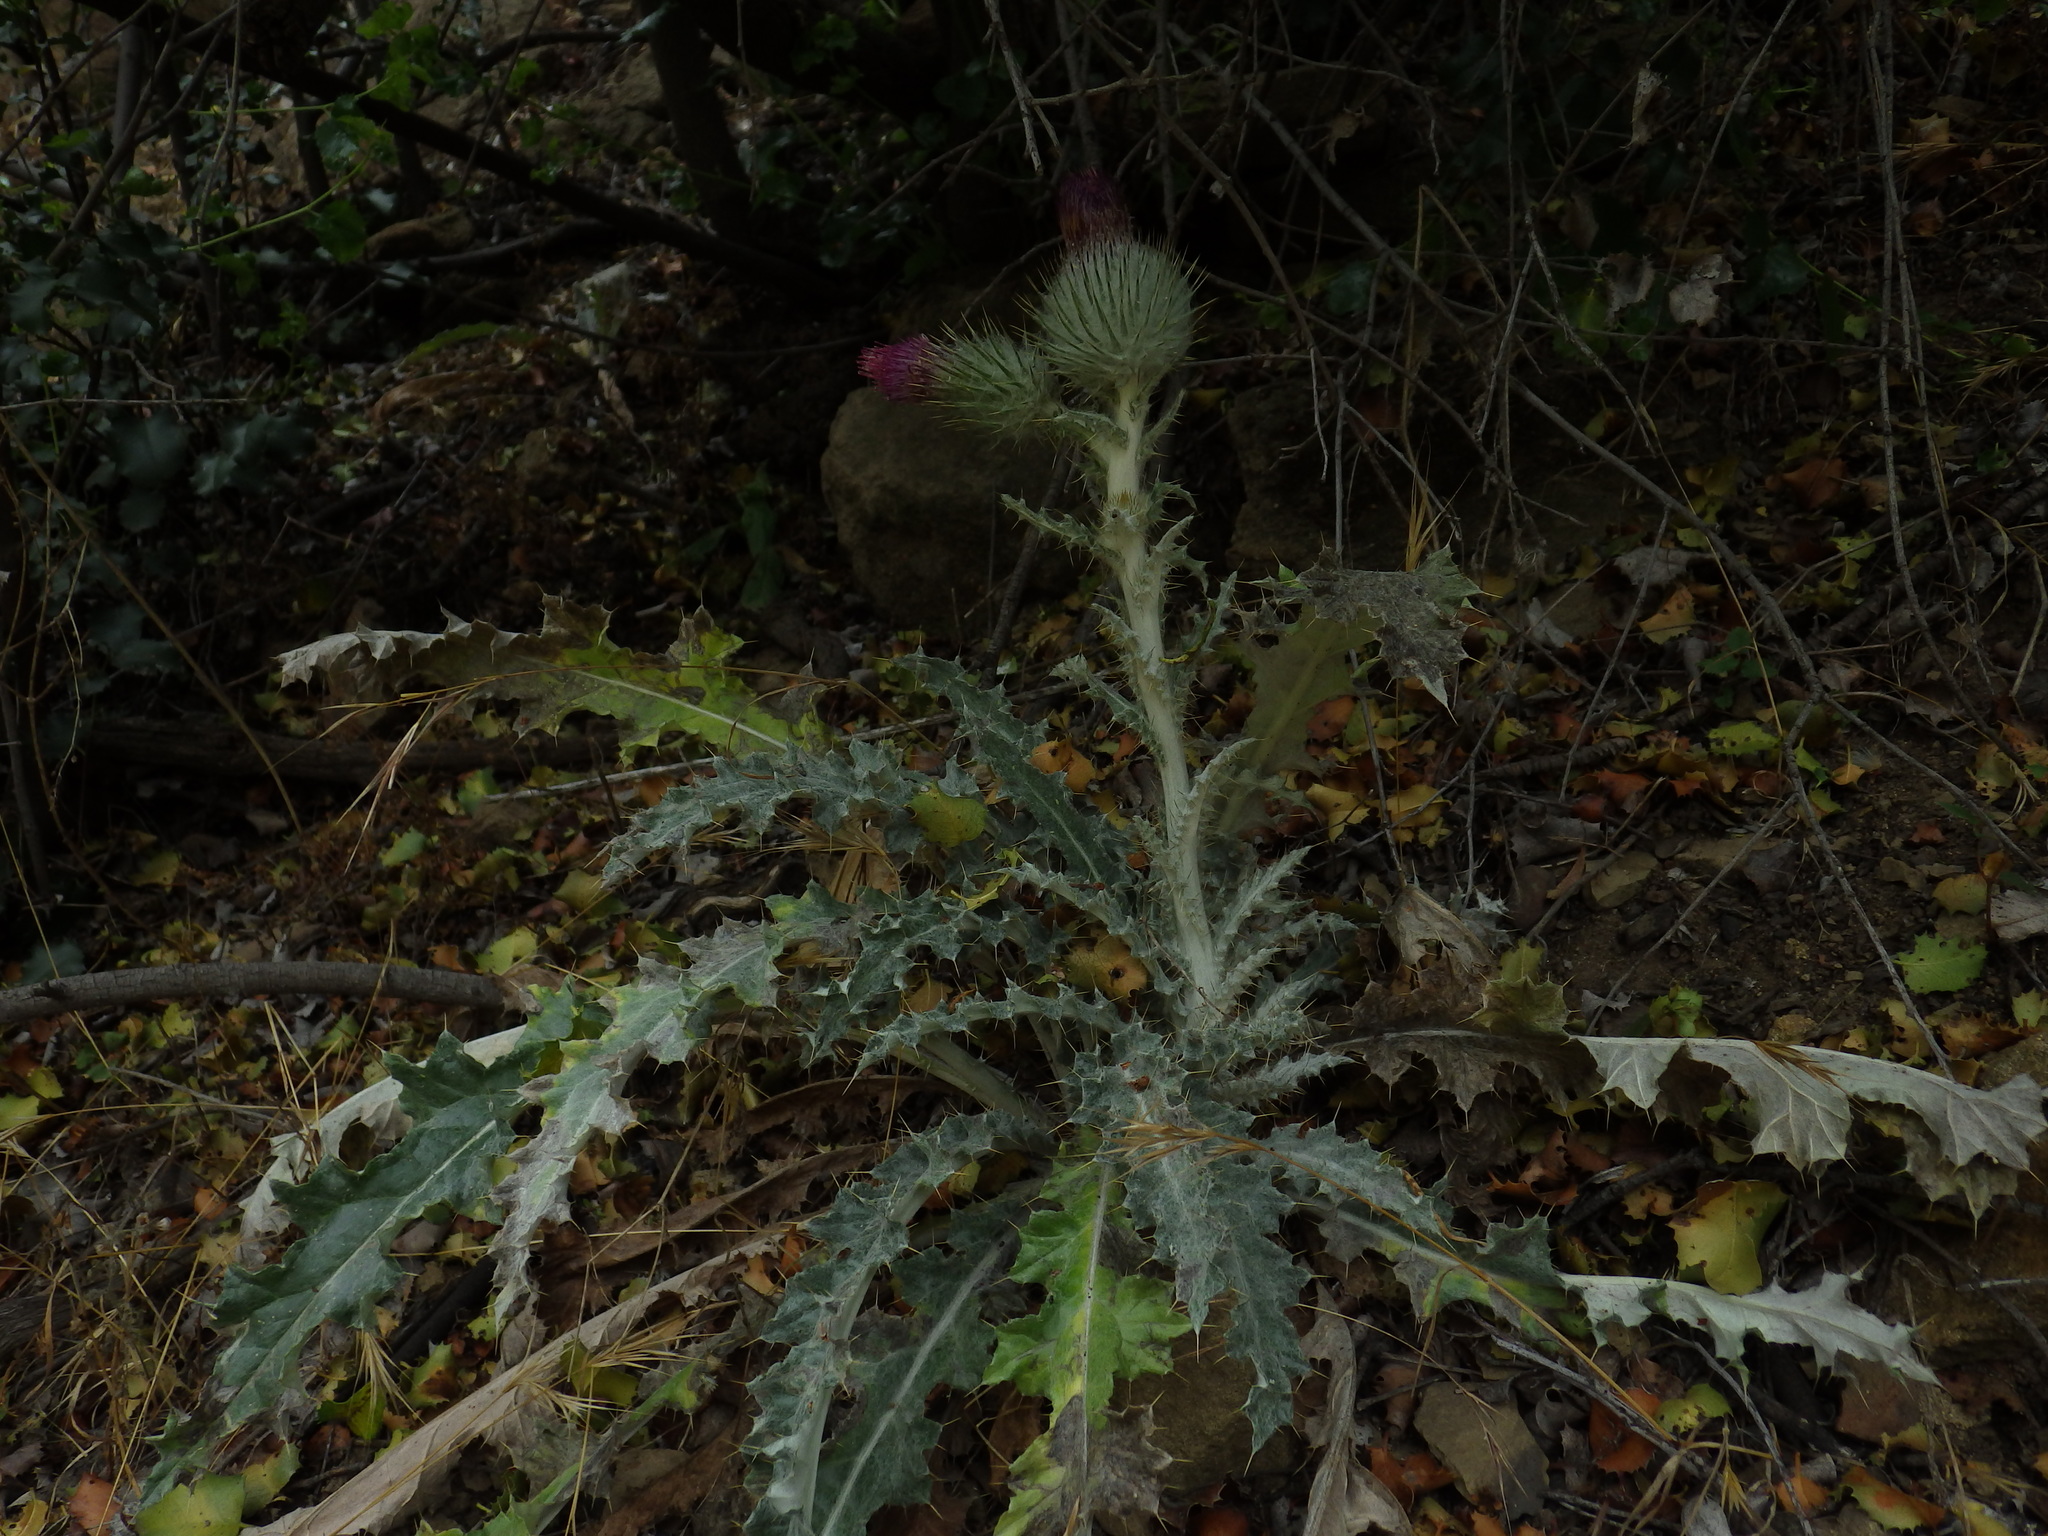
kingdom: Plantae
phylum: Tracheophyta
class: Magnoliopsida
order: Asterales
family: Asteraceae
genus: Cirsium
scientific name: Cirsium occidentale
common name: Western thistle
